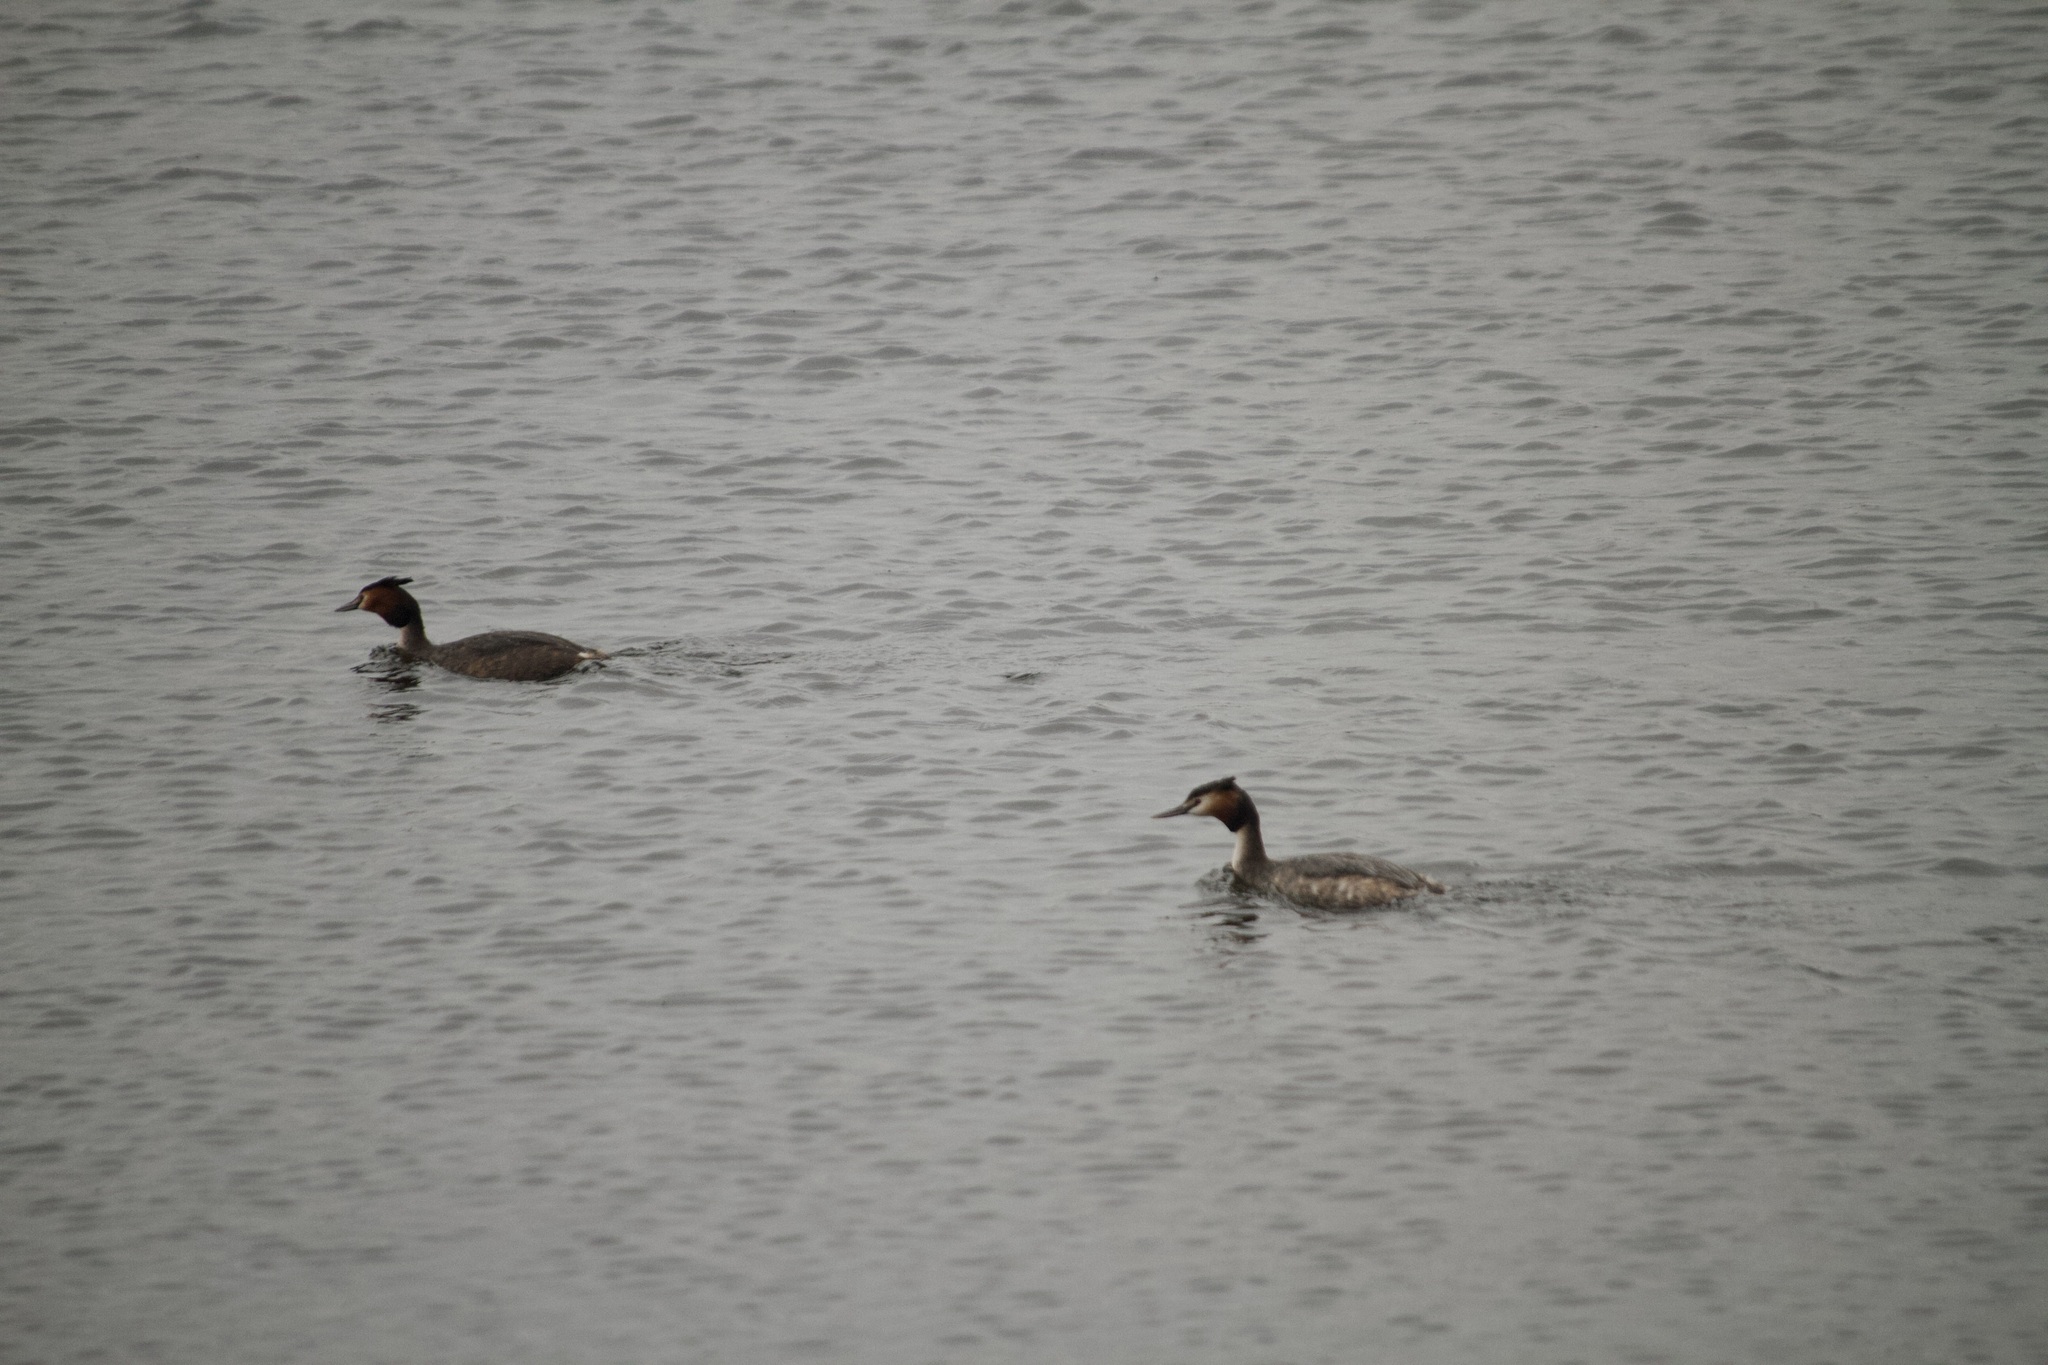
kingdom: Animalia
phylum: Chordata
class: Aves
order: Podicipediformes
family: Podicipedidae
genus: Podiceps
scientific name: Podiceps cristatus
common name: Great crested grebe
